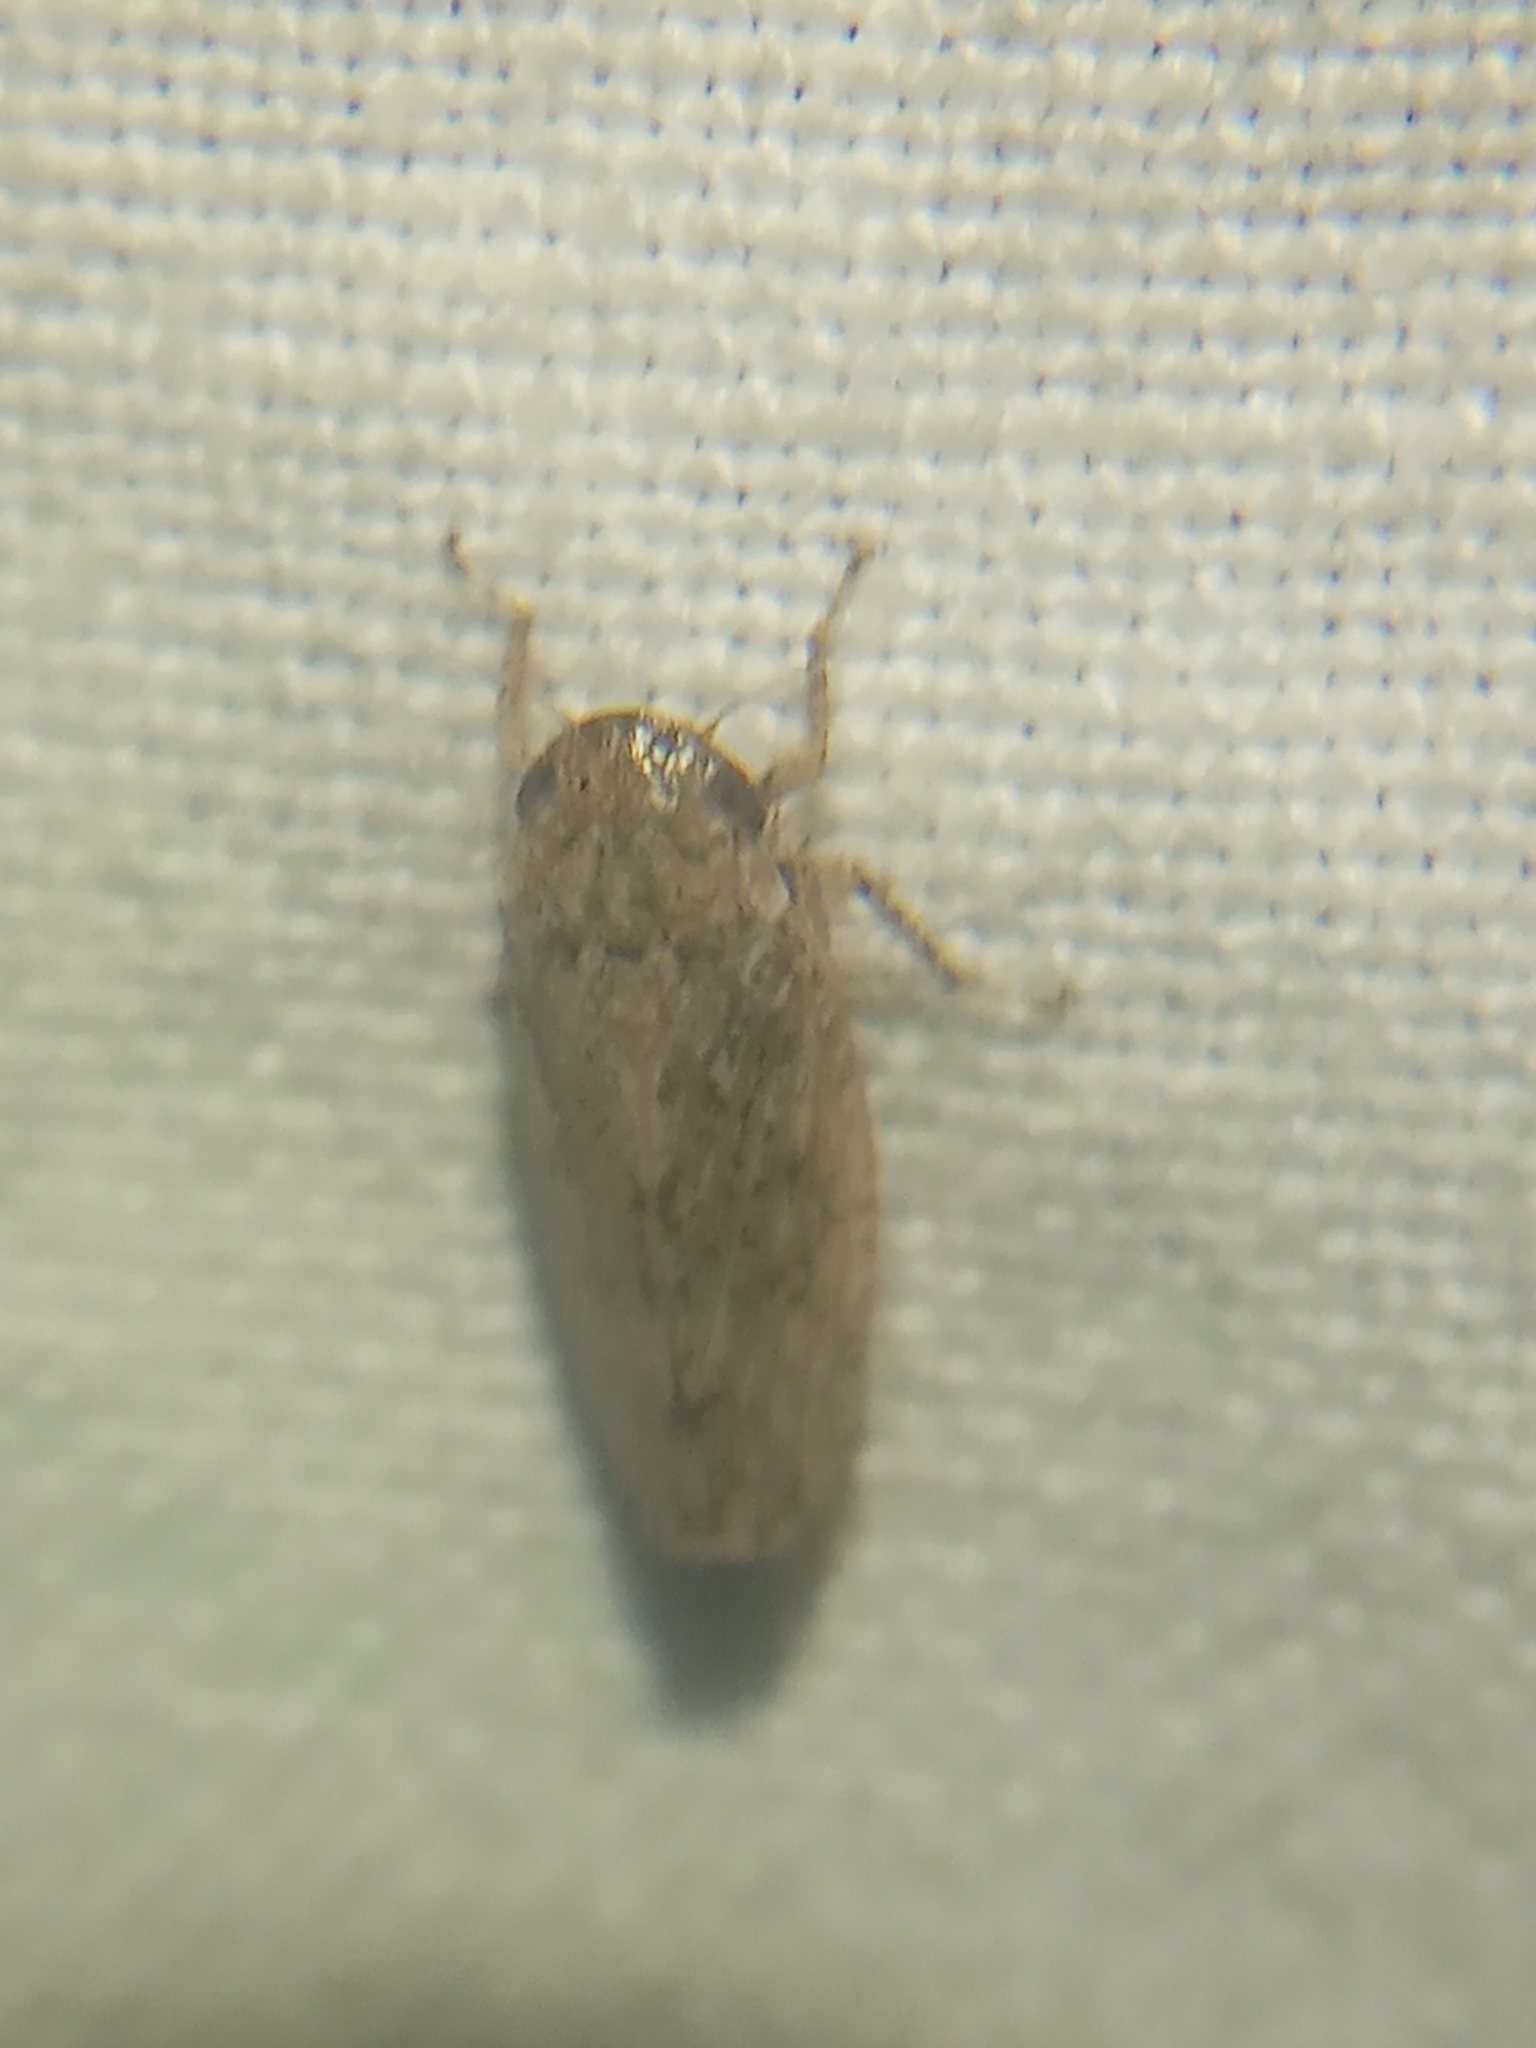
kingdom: Animalia
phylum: Arthropoda
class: Insecta
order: Hemiptera
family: Cicadellidae
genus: Curtara
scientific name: Curtara insularis
